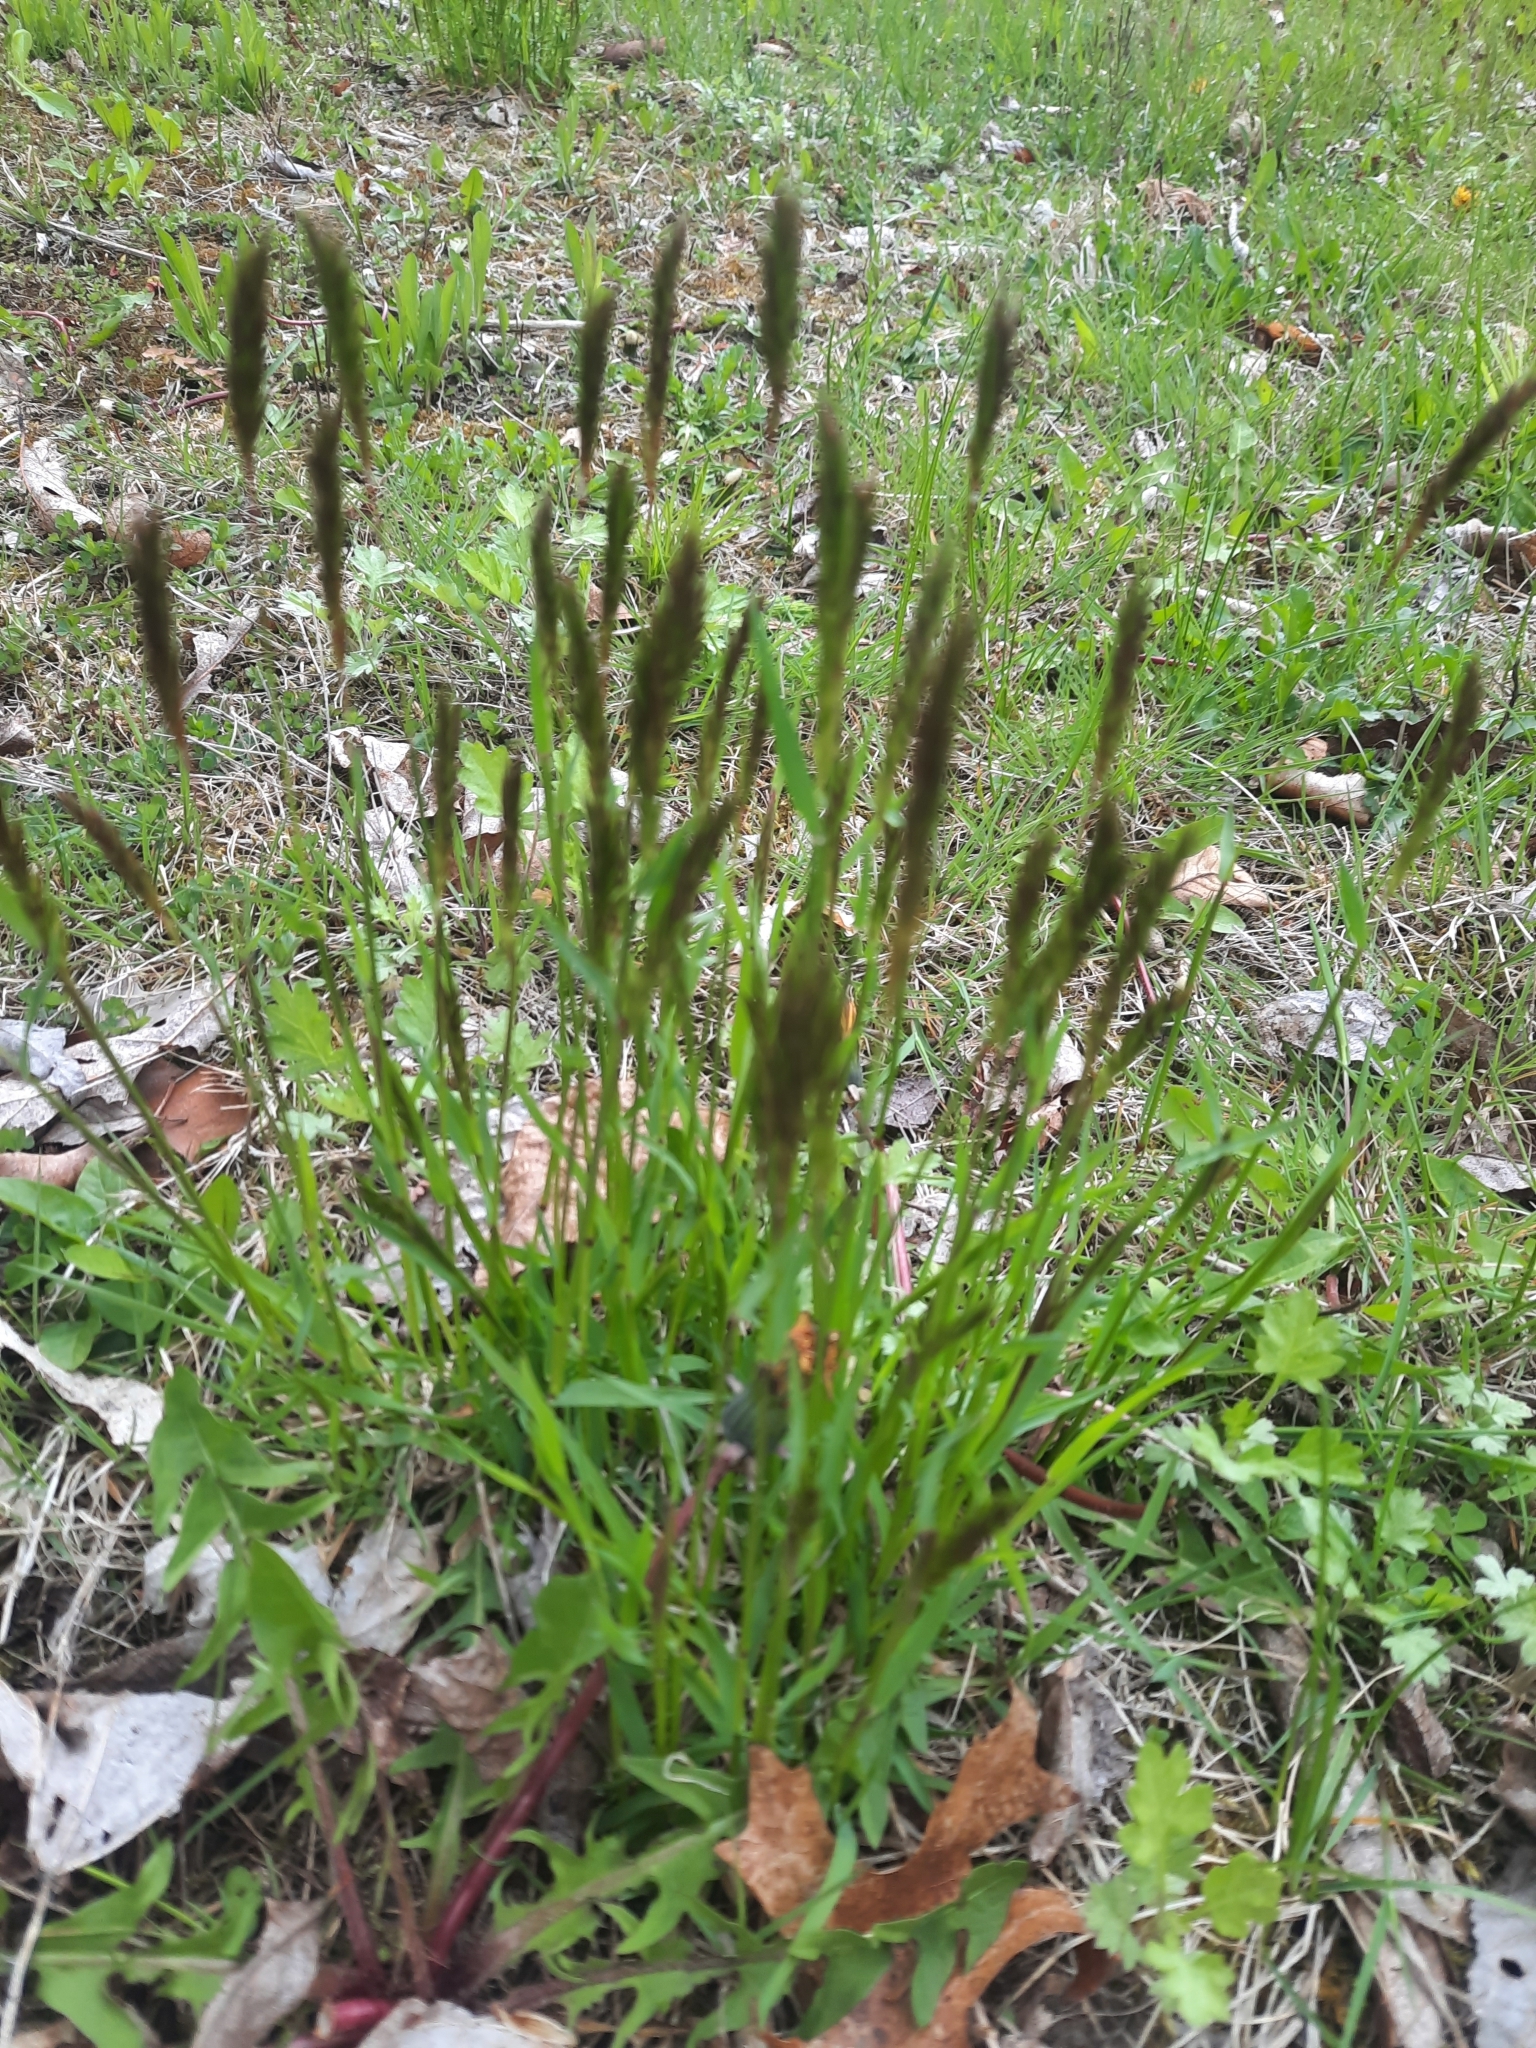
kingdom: Plantae
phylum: Tracheophyta
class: Liliopsida
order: Poales
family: Poaceae
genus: Anthoxanthum
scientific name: Anthoxanthum odoratum
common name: Sweet vernalgrass
